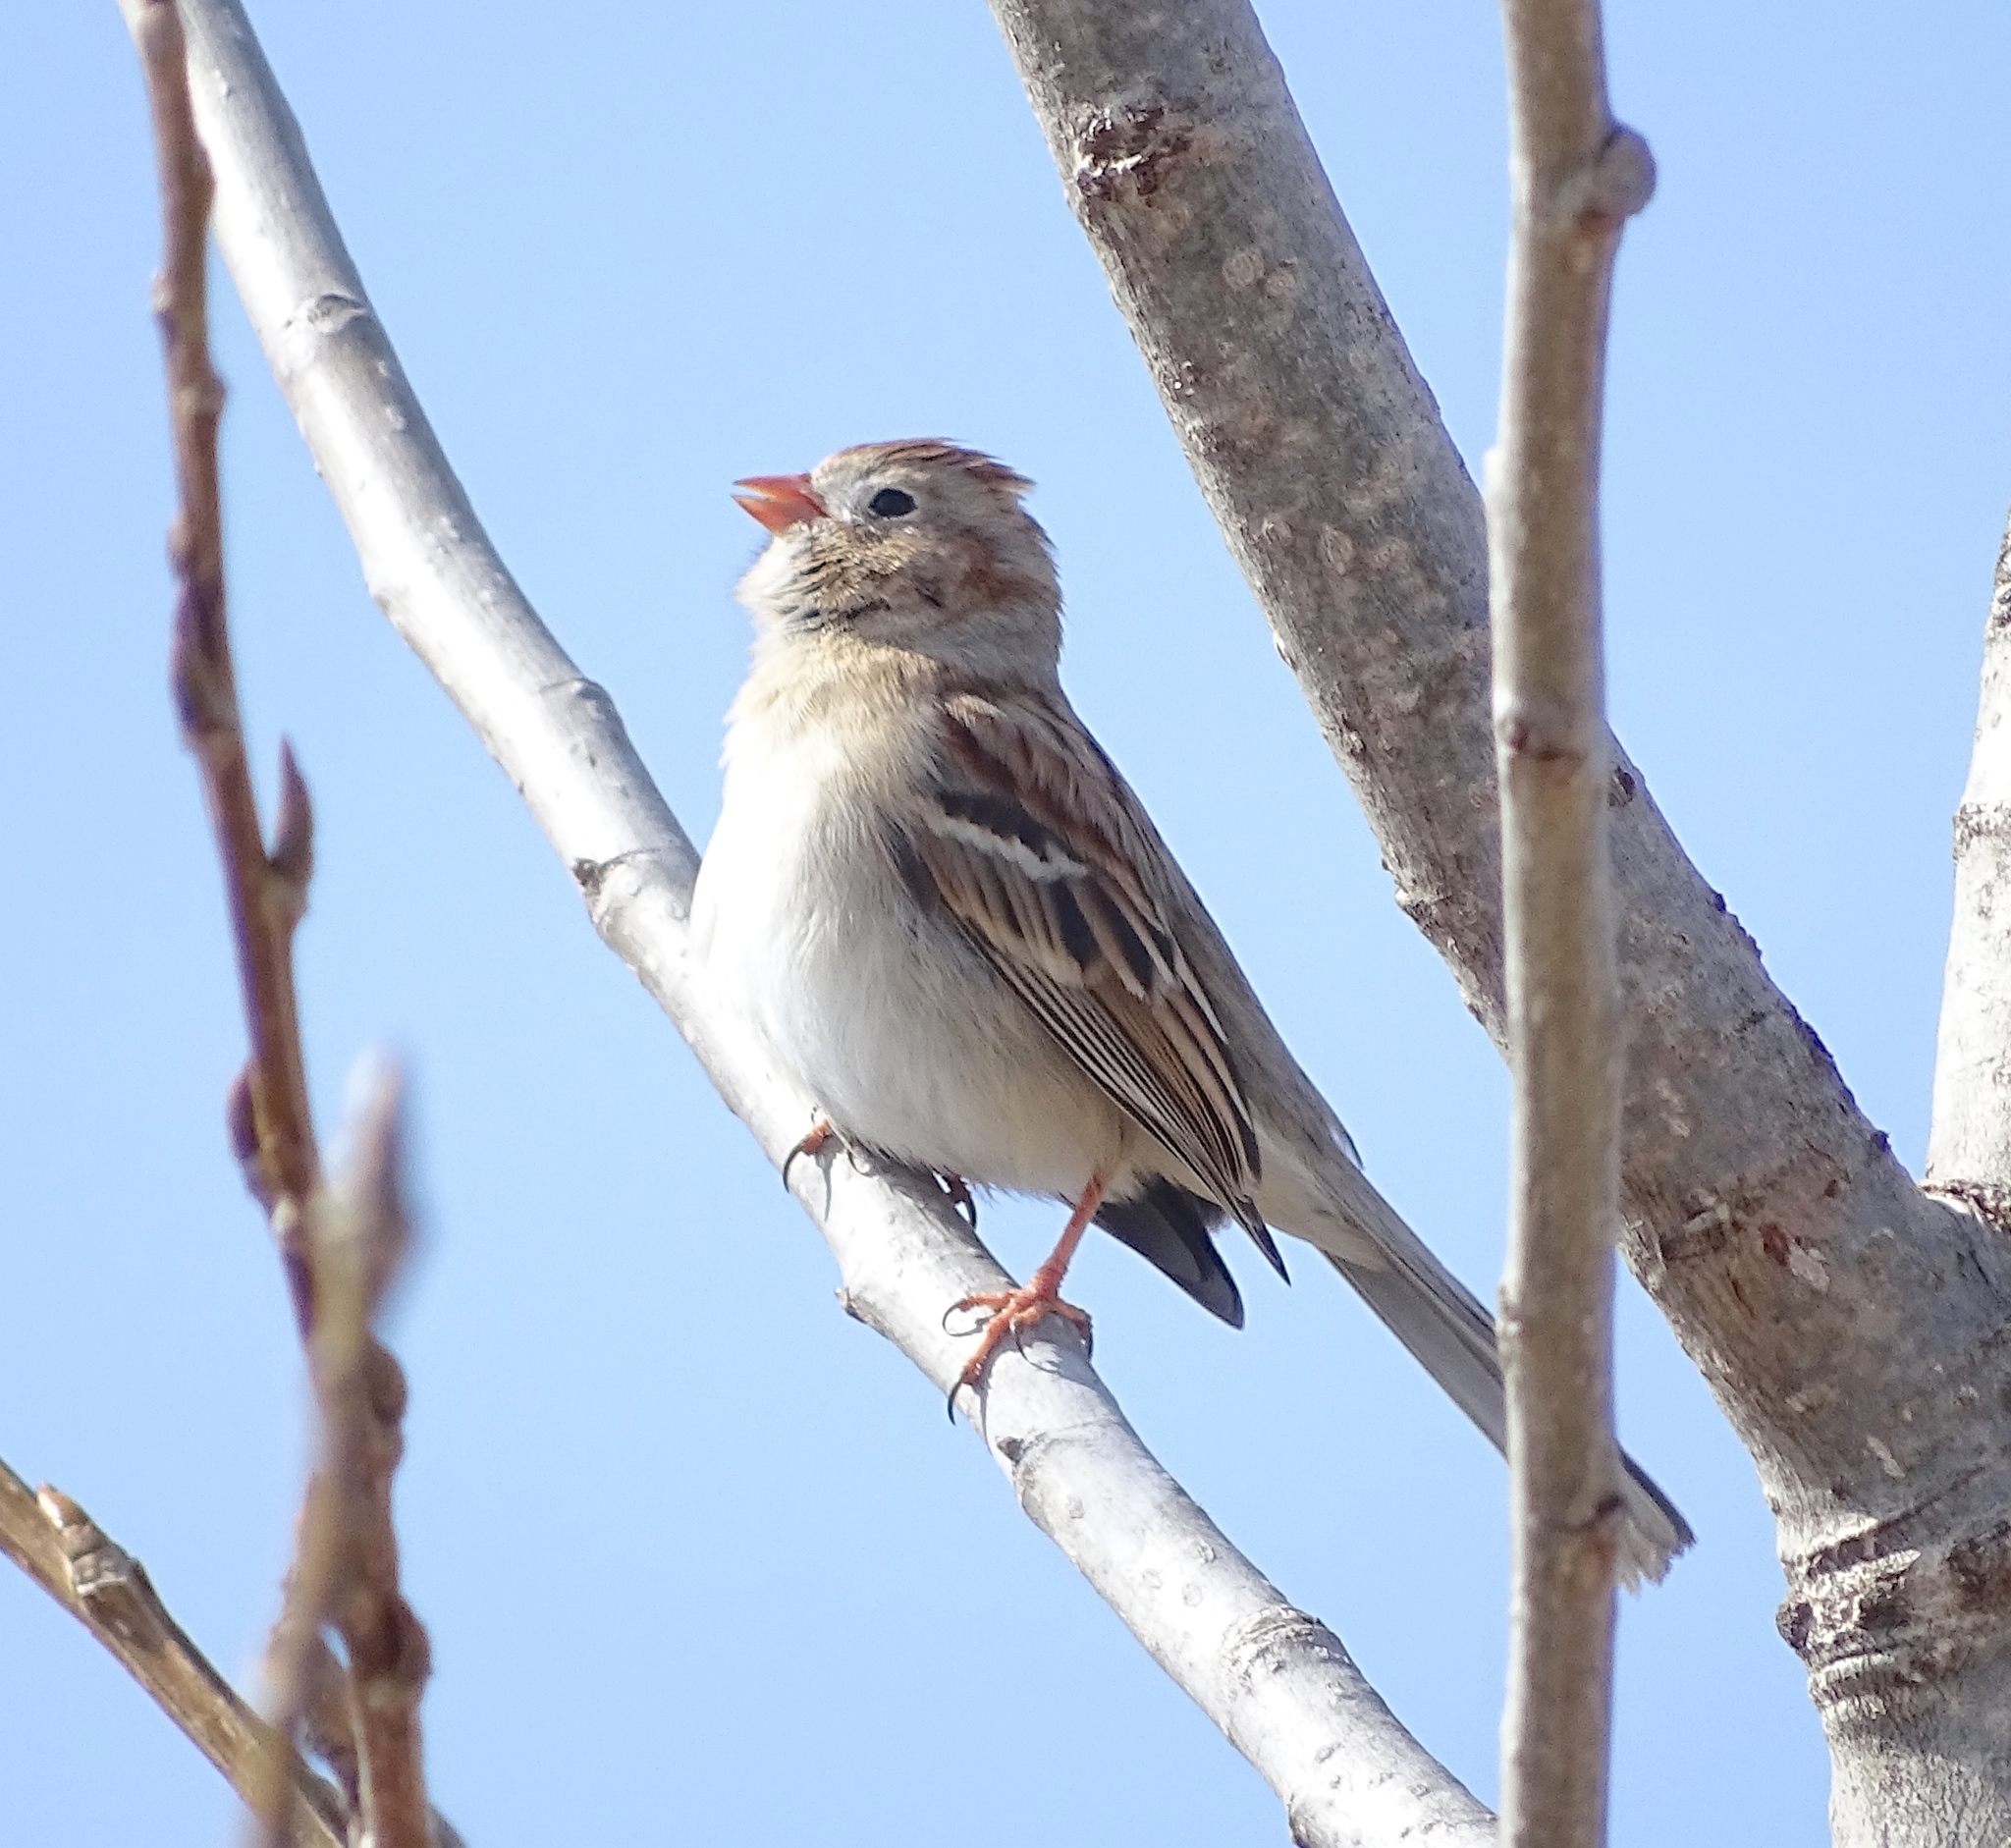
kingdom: Animalia
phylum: Chordata
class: Aves
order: Passeriformes
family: Passerellidae
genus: Spizella
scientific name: Spizella pusilla
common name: Field sparrow
